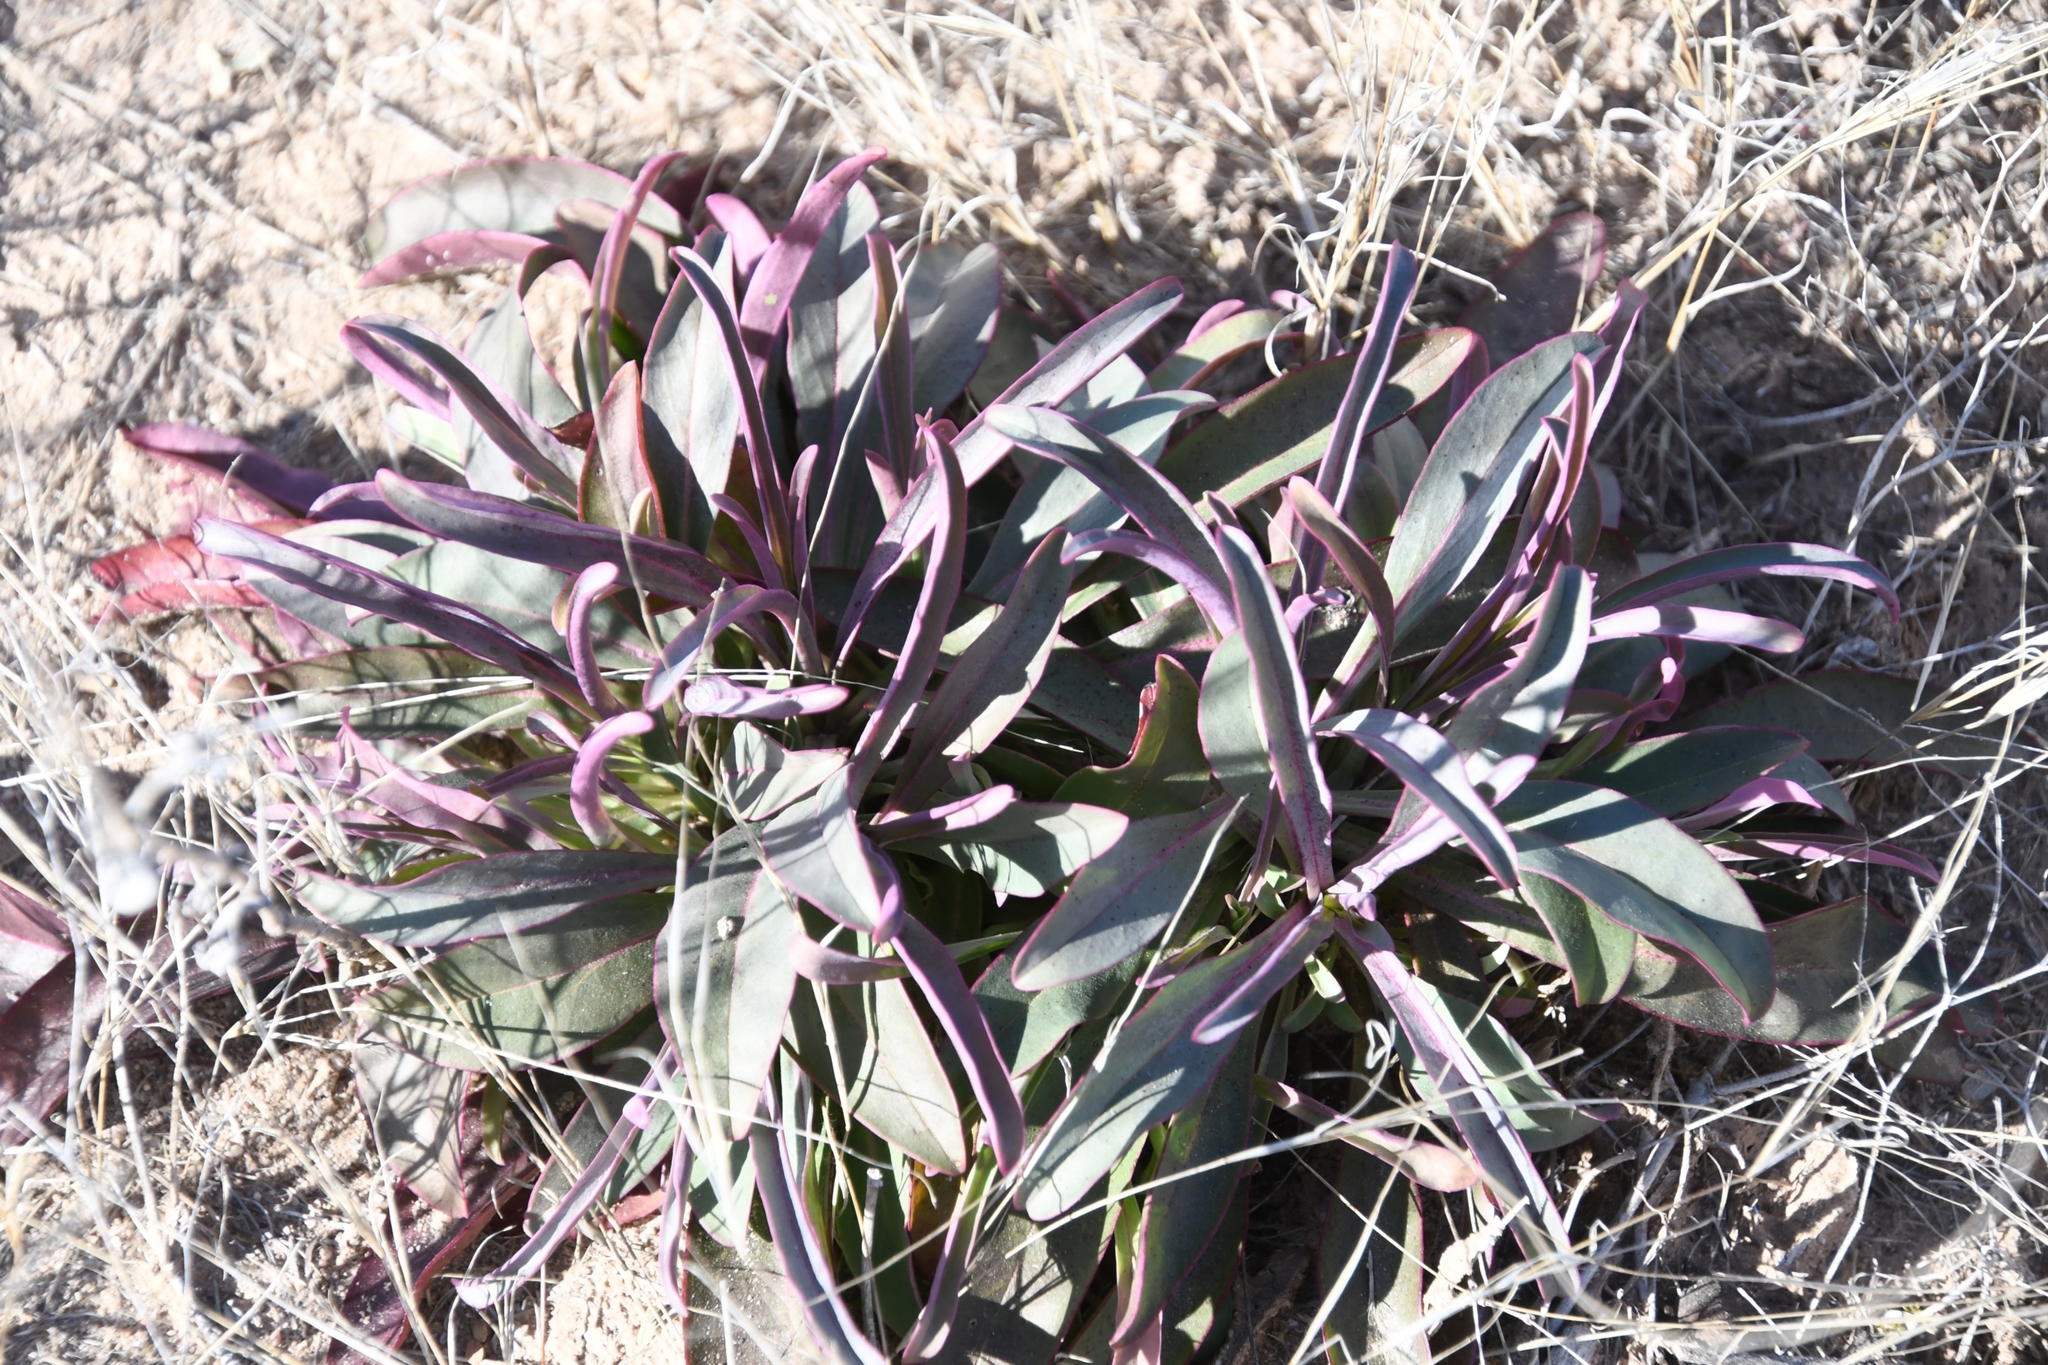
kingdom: Plantae
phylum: Tracheophyta
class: Magnoliopsida
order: Lamiales
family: Plantaginaceae
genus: Penstemon
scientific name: Penstemon parryi
